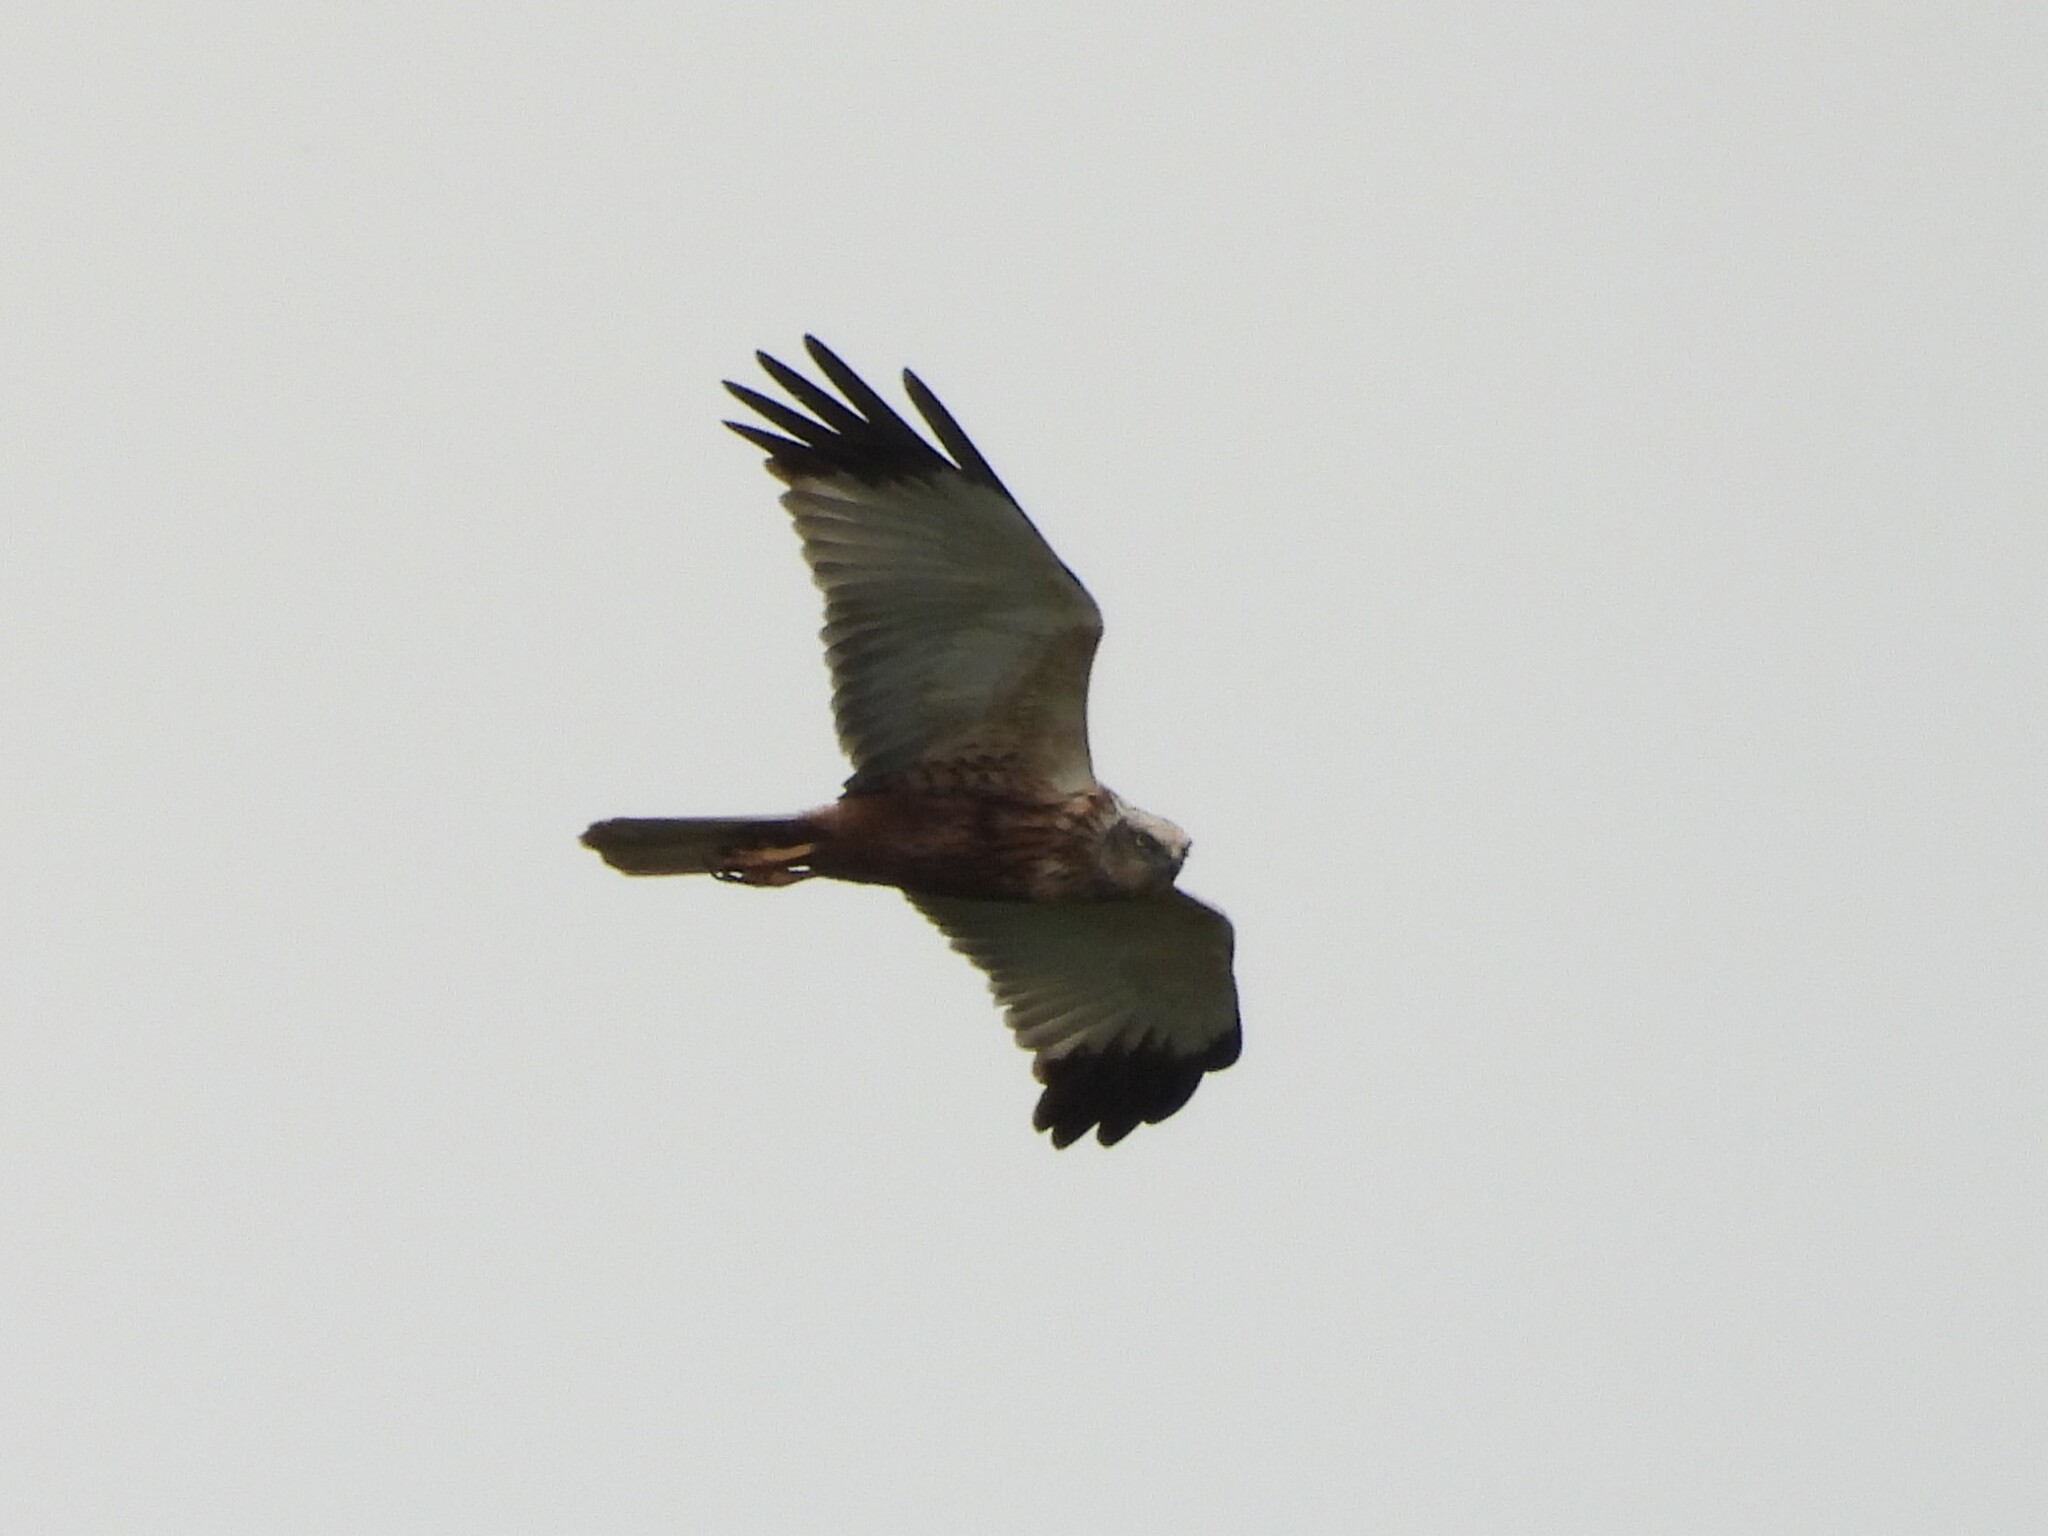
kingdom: Animalia
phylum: Chordata
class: Aves
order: Accipitriformes
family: Accipitridae
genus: Circus
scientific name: Circus aeruginosus
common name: Western marsh harrier
